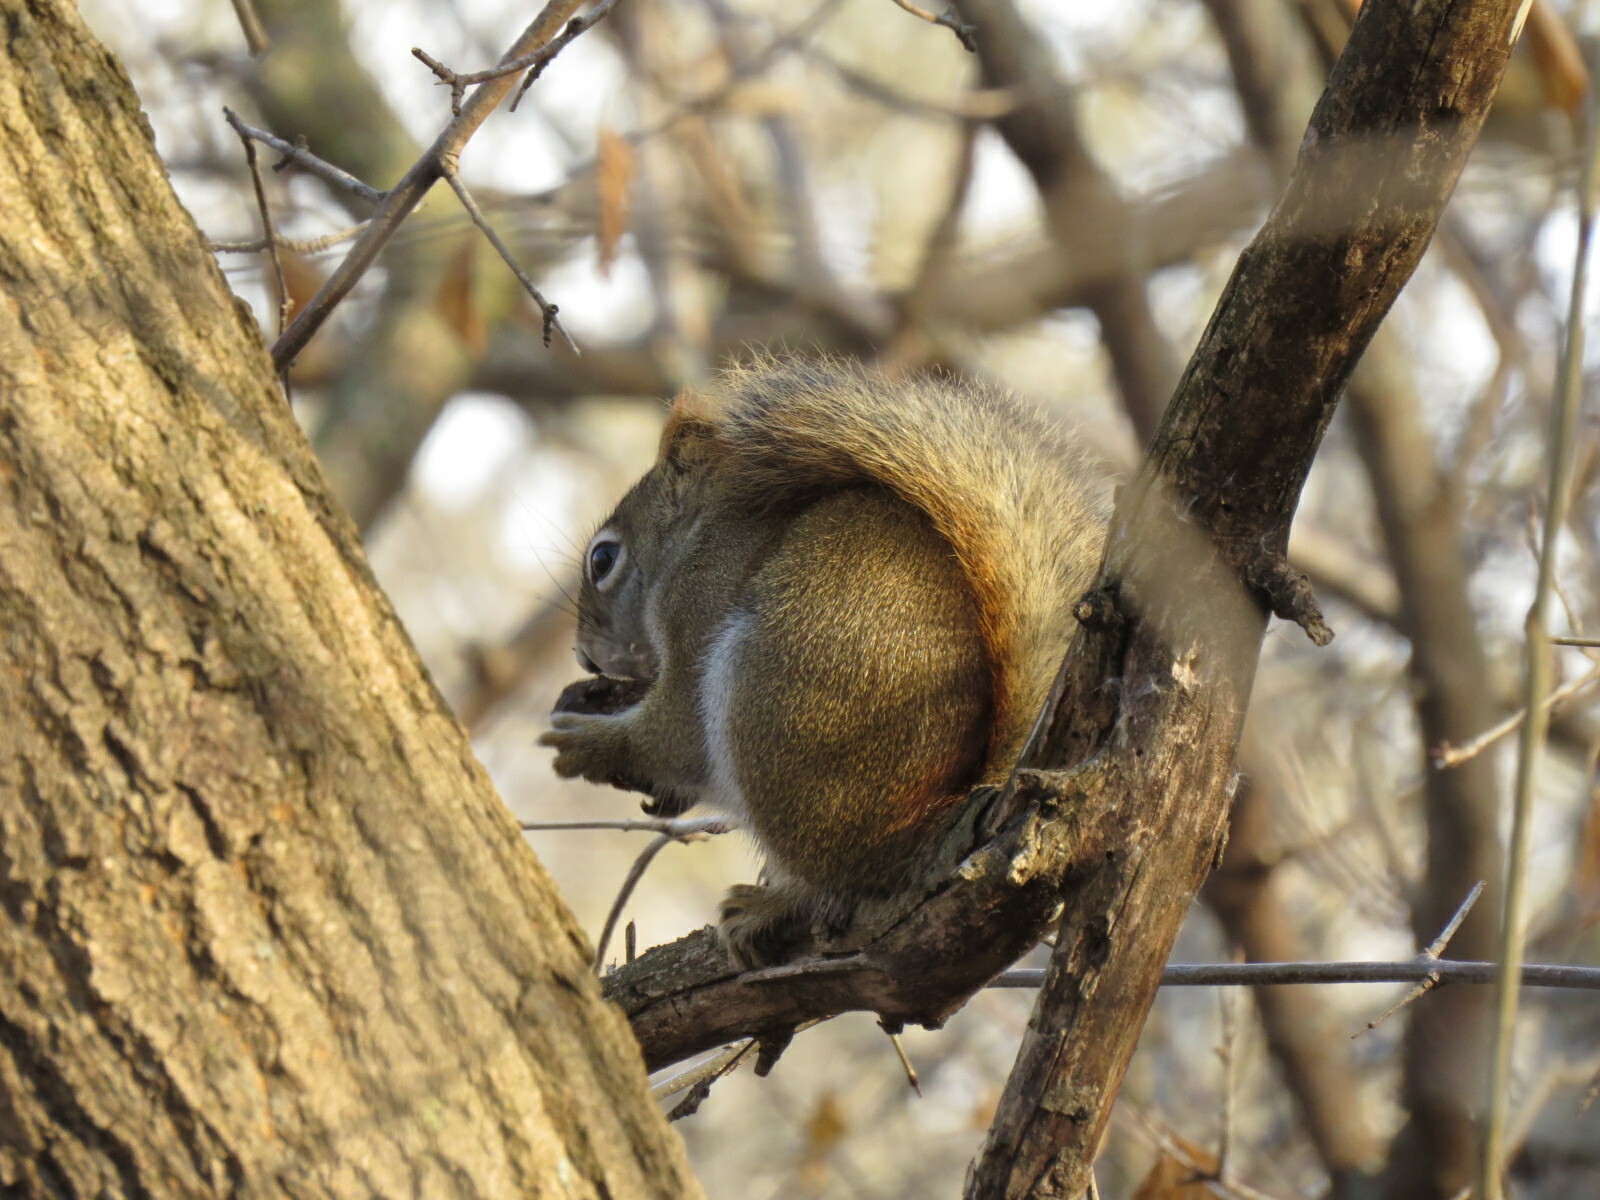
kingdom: Animalia
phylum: Chordata
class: Mammalia
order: Rodentia
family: Sciuridae
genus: Tamiasciurus
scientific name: Tamiasciurus hudsonicus
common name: Red squirrel
